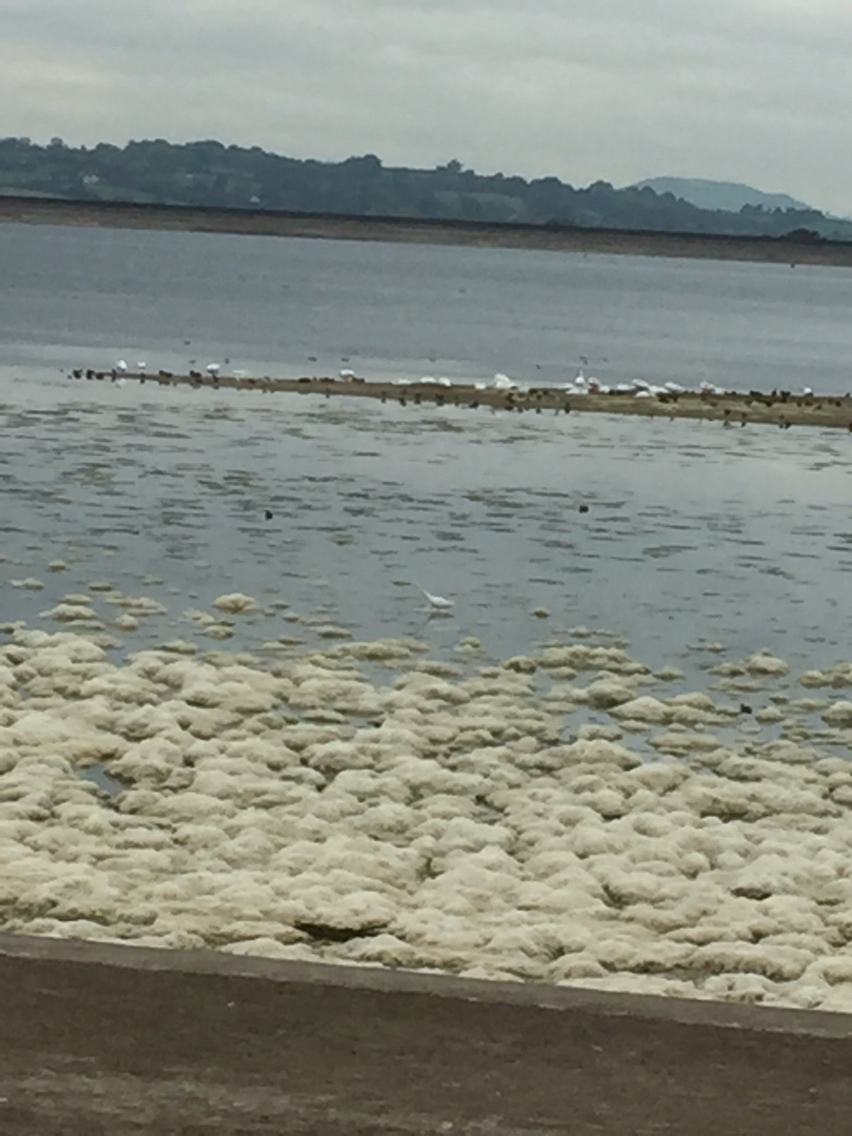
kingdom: Animalia
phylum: Chordata
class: Aves
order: Pelecaniformes
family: Ardeidae
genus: Egretta
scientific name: Egretta garzetta
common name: Little egret
